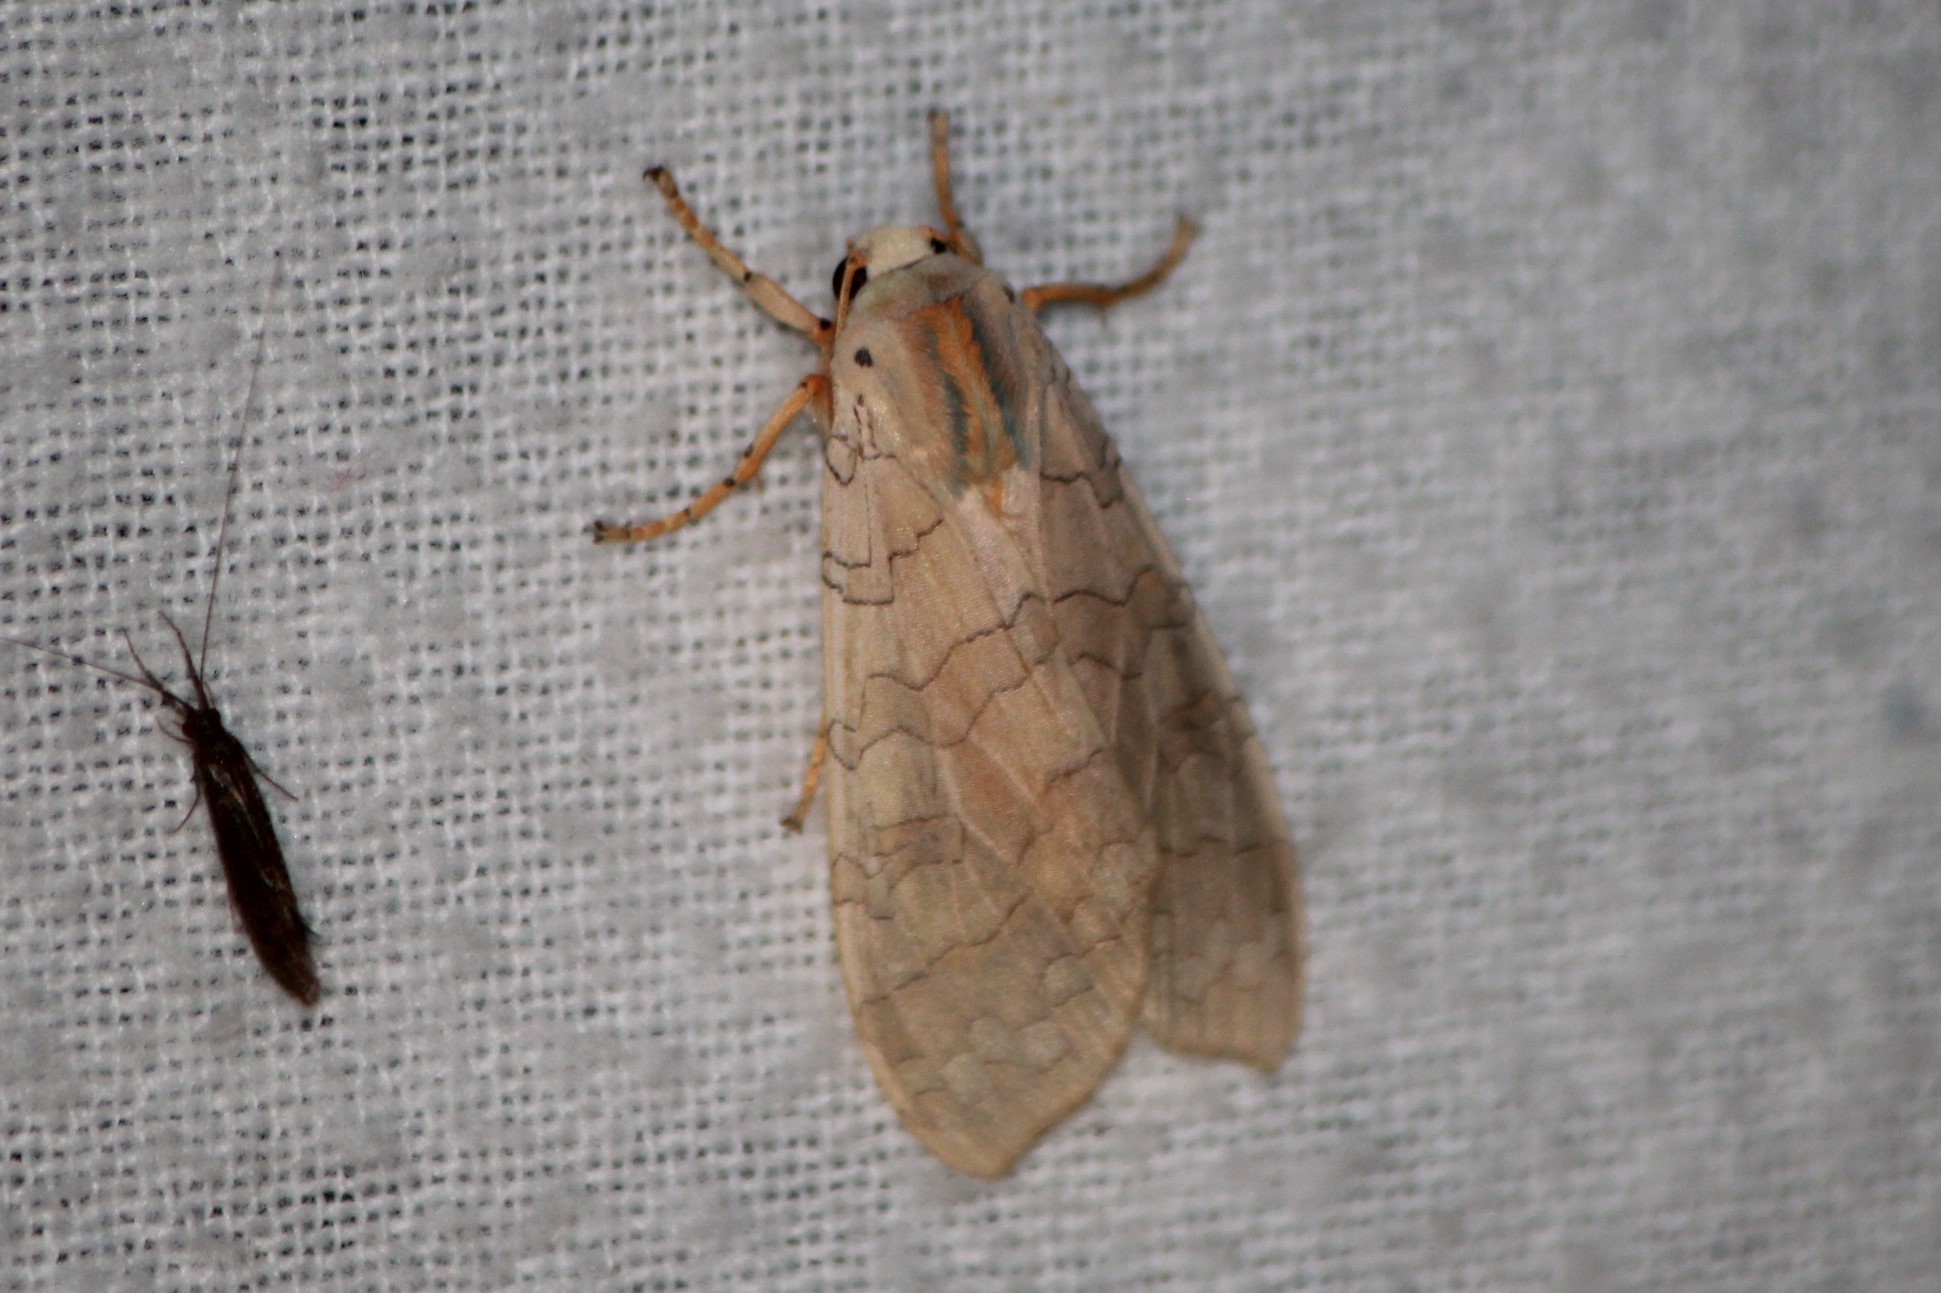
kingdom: Animalia
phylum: Arthropoda
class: Insecta
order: Lepidoptera
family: Erebidae
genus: Halysidota
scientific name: Halysidota tessellaris
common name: Banded tussock moth
